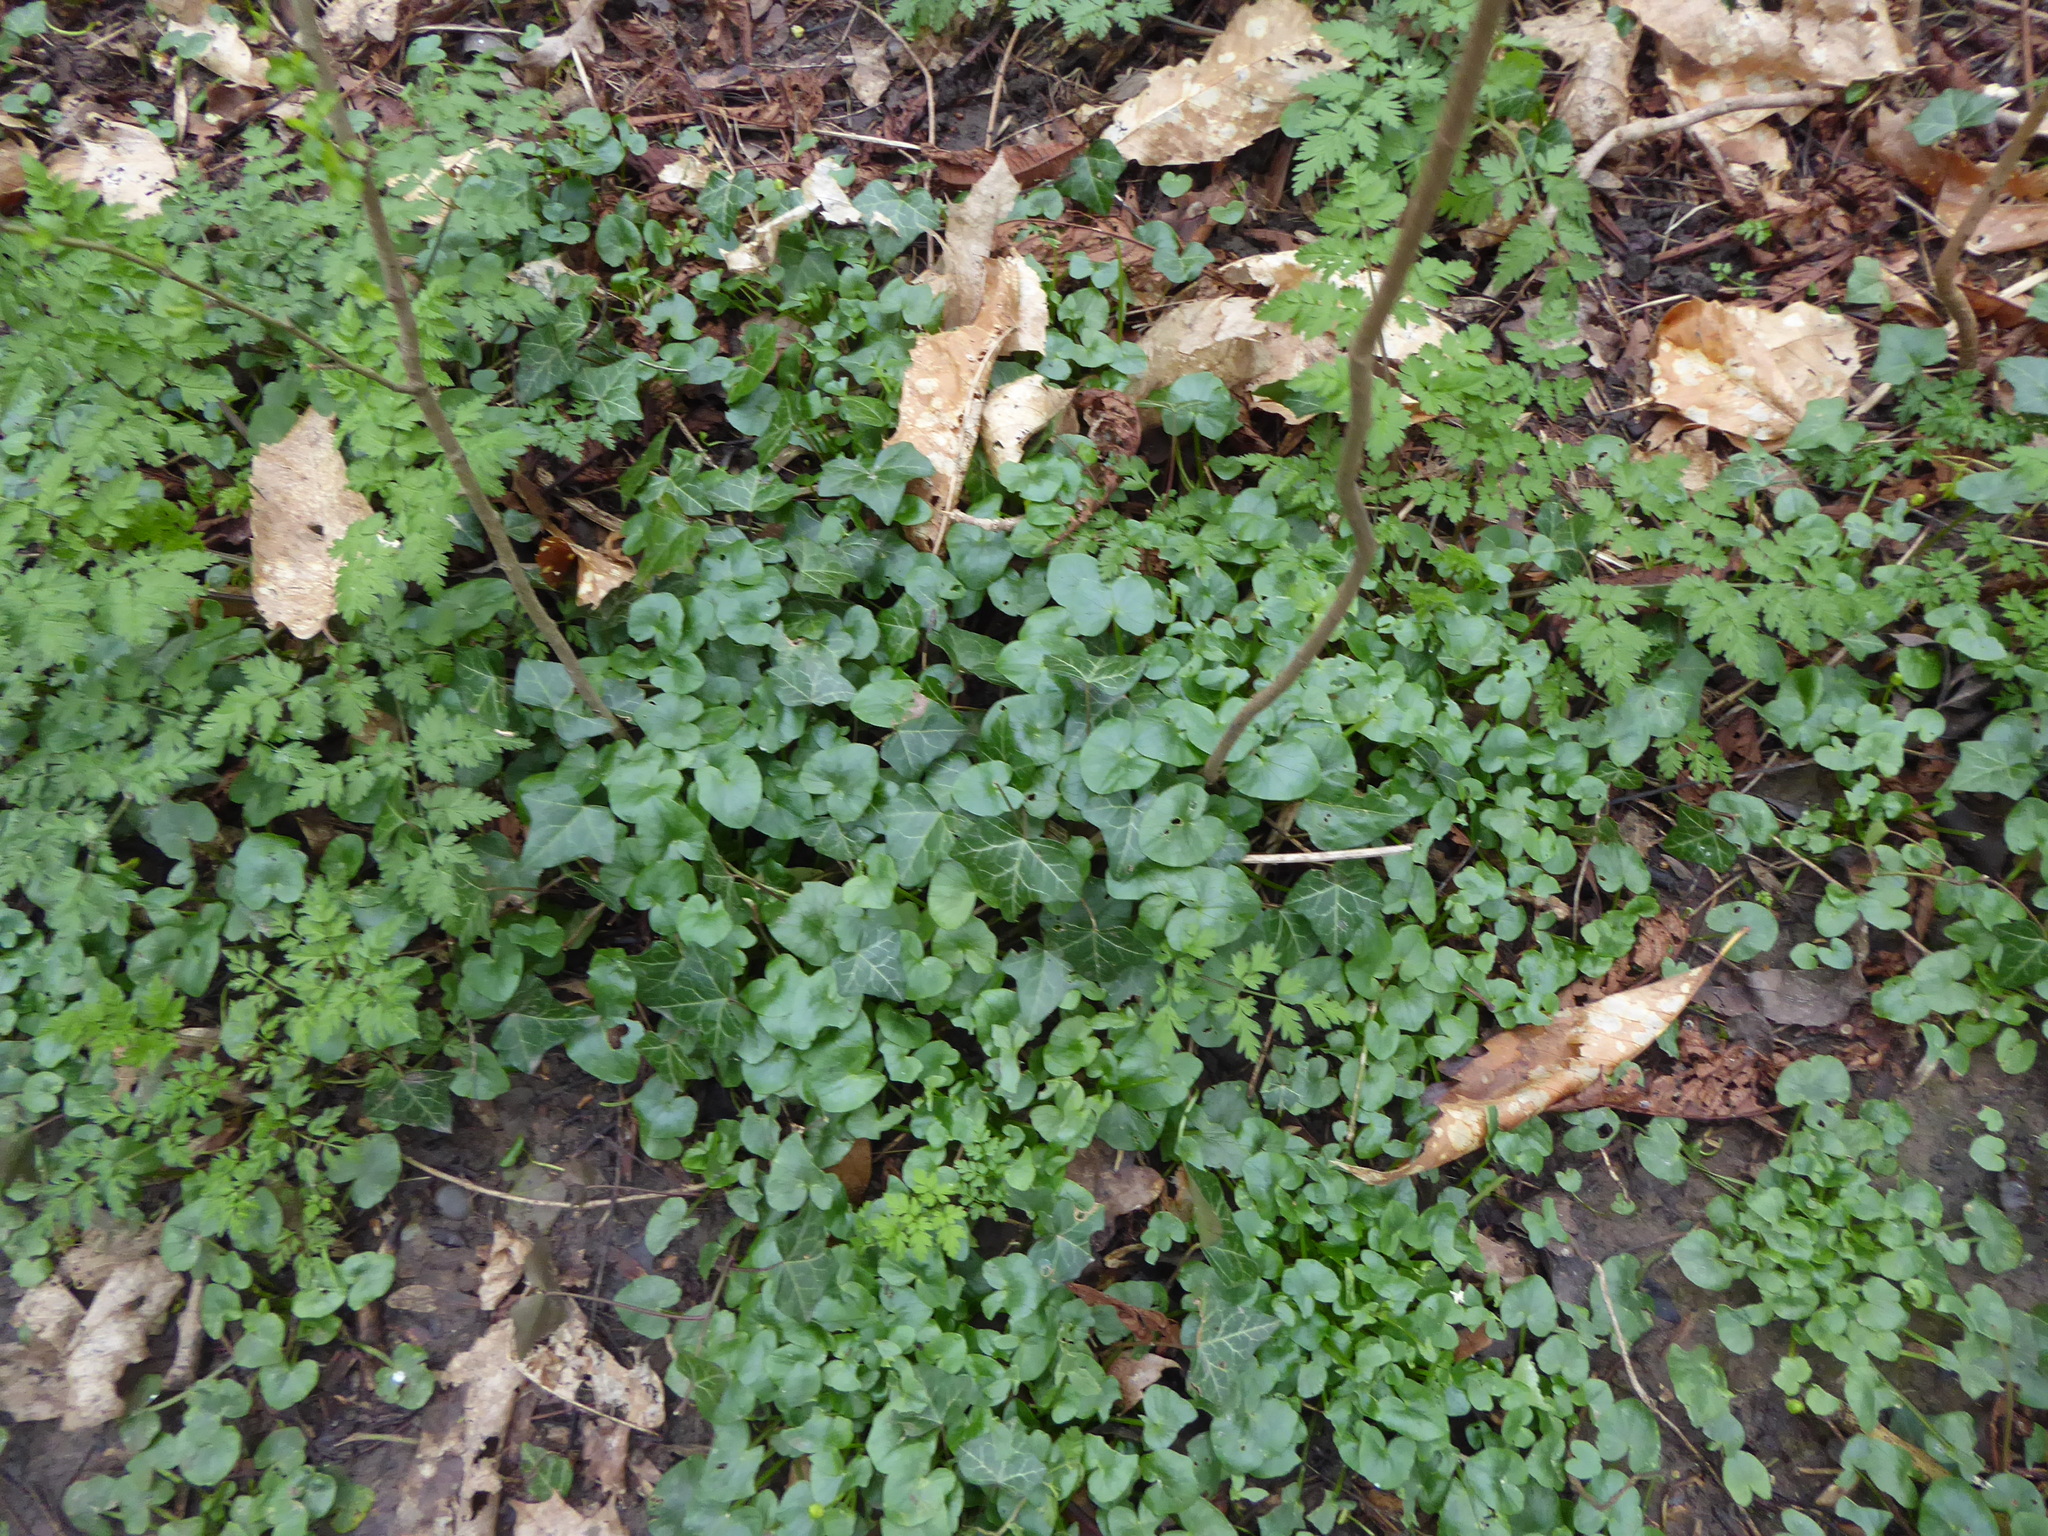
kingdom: Plantae
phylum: Tracheophyta
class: Magnoliopsida
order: Ranunculales
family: Ranunculaceae
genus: Ficaria
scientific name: Ficaria verna
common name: Lesser celandine
